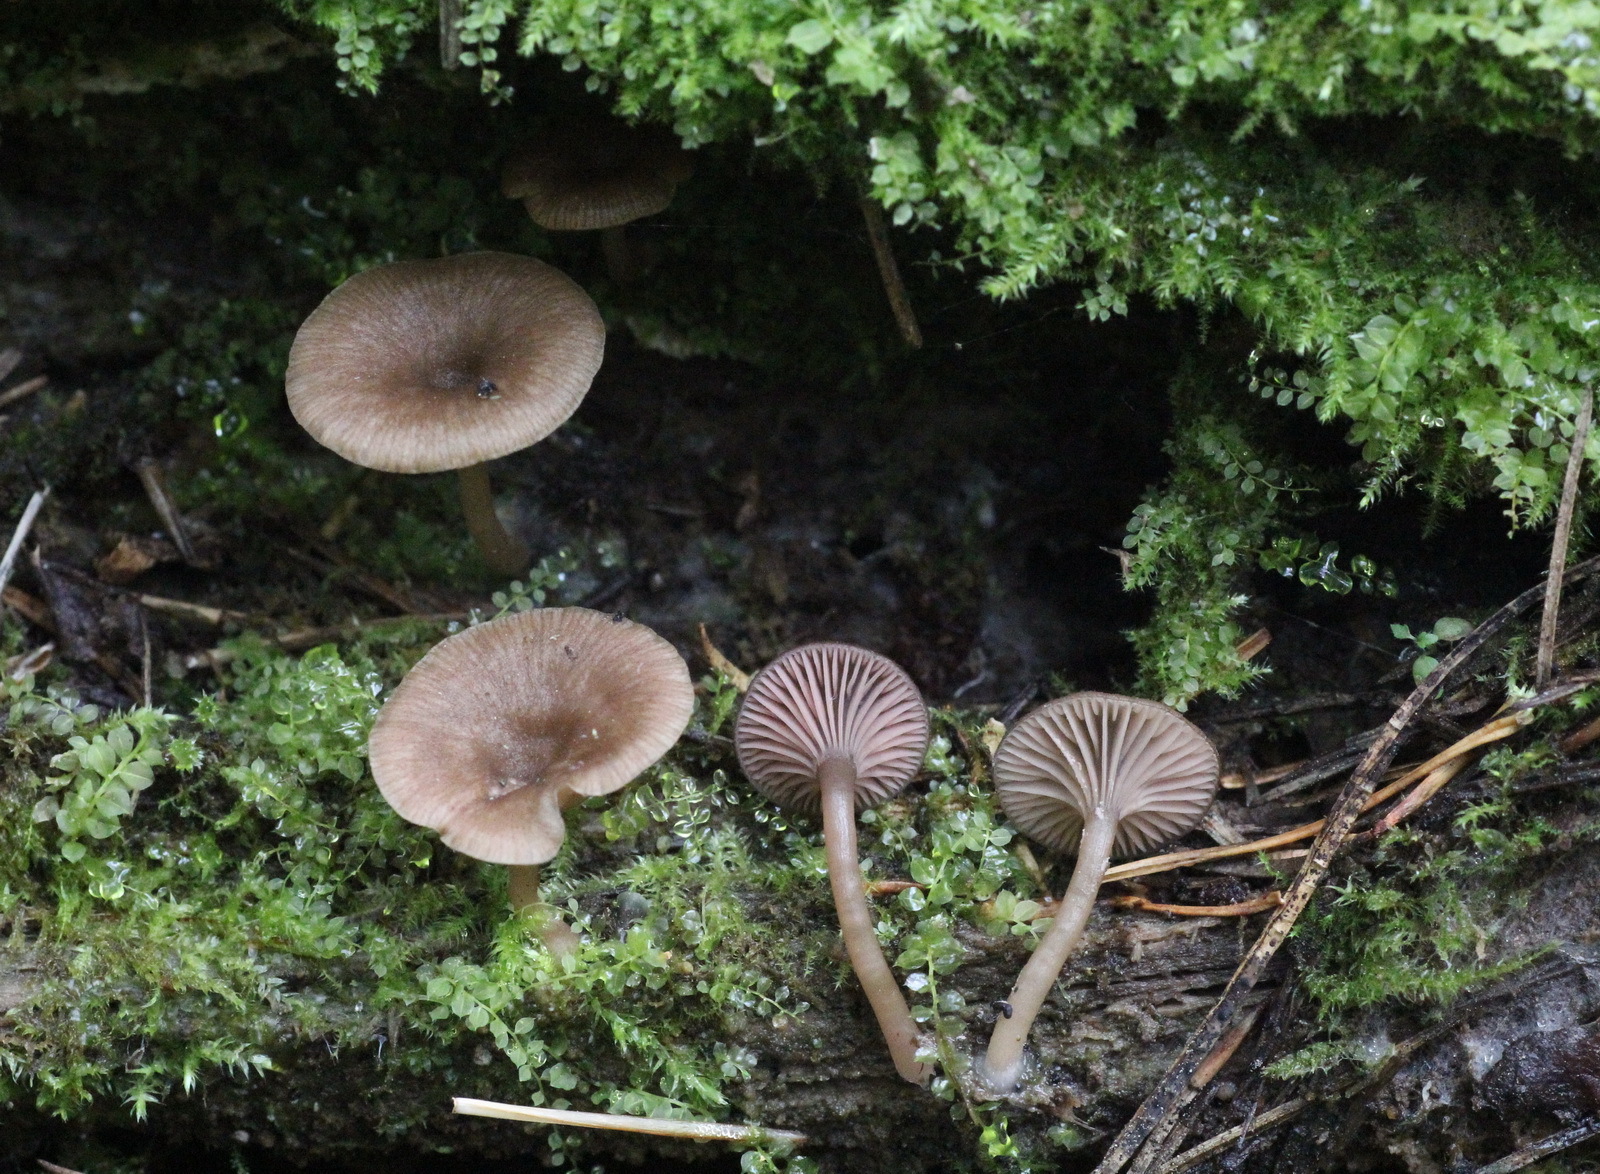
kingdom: Fungi
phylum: Basidiomycota
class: Agaricomycetes
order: Agaricales
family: Hygrophoraceae
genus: Arrhenia
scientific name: Arrhenia discorosea
